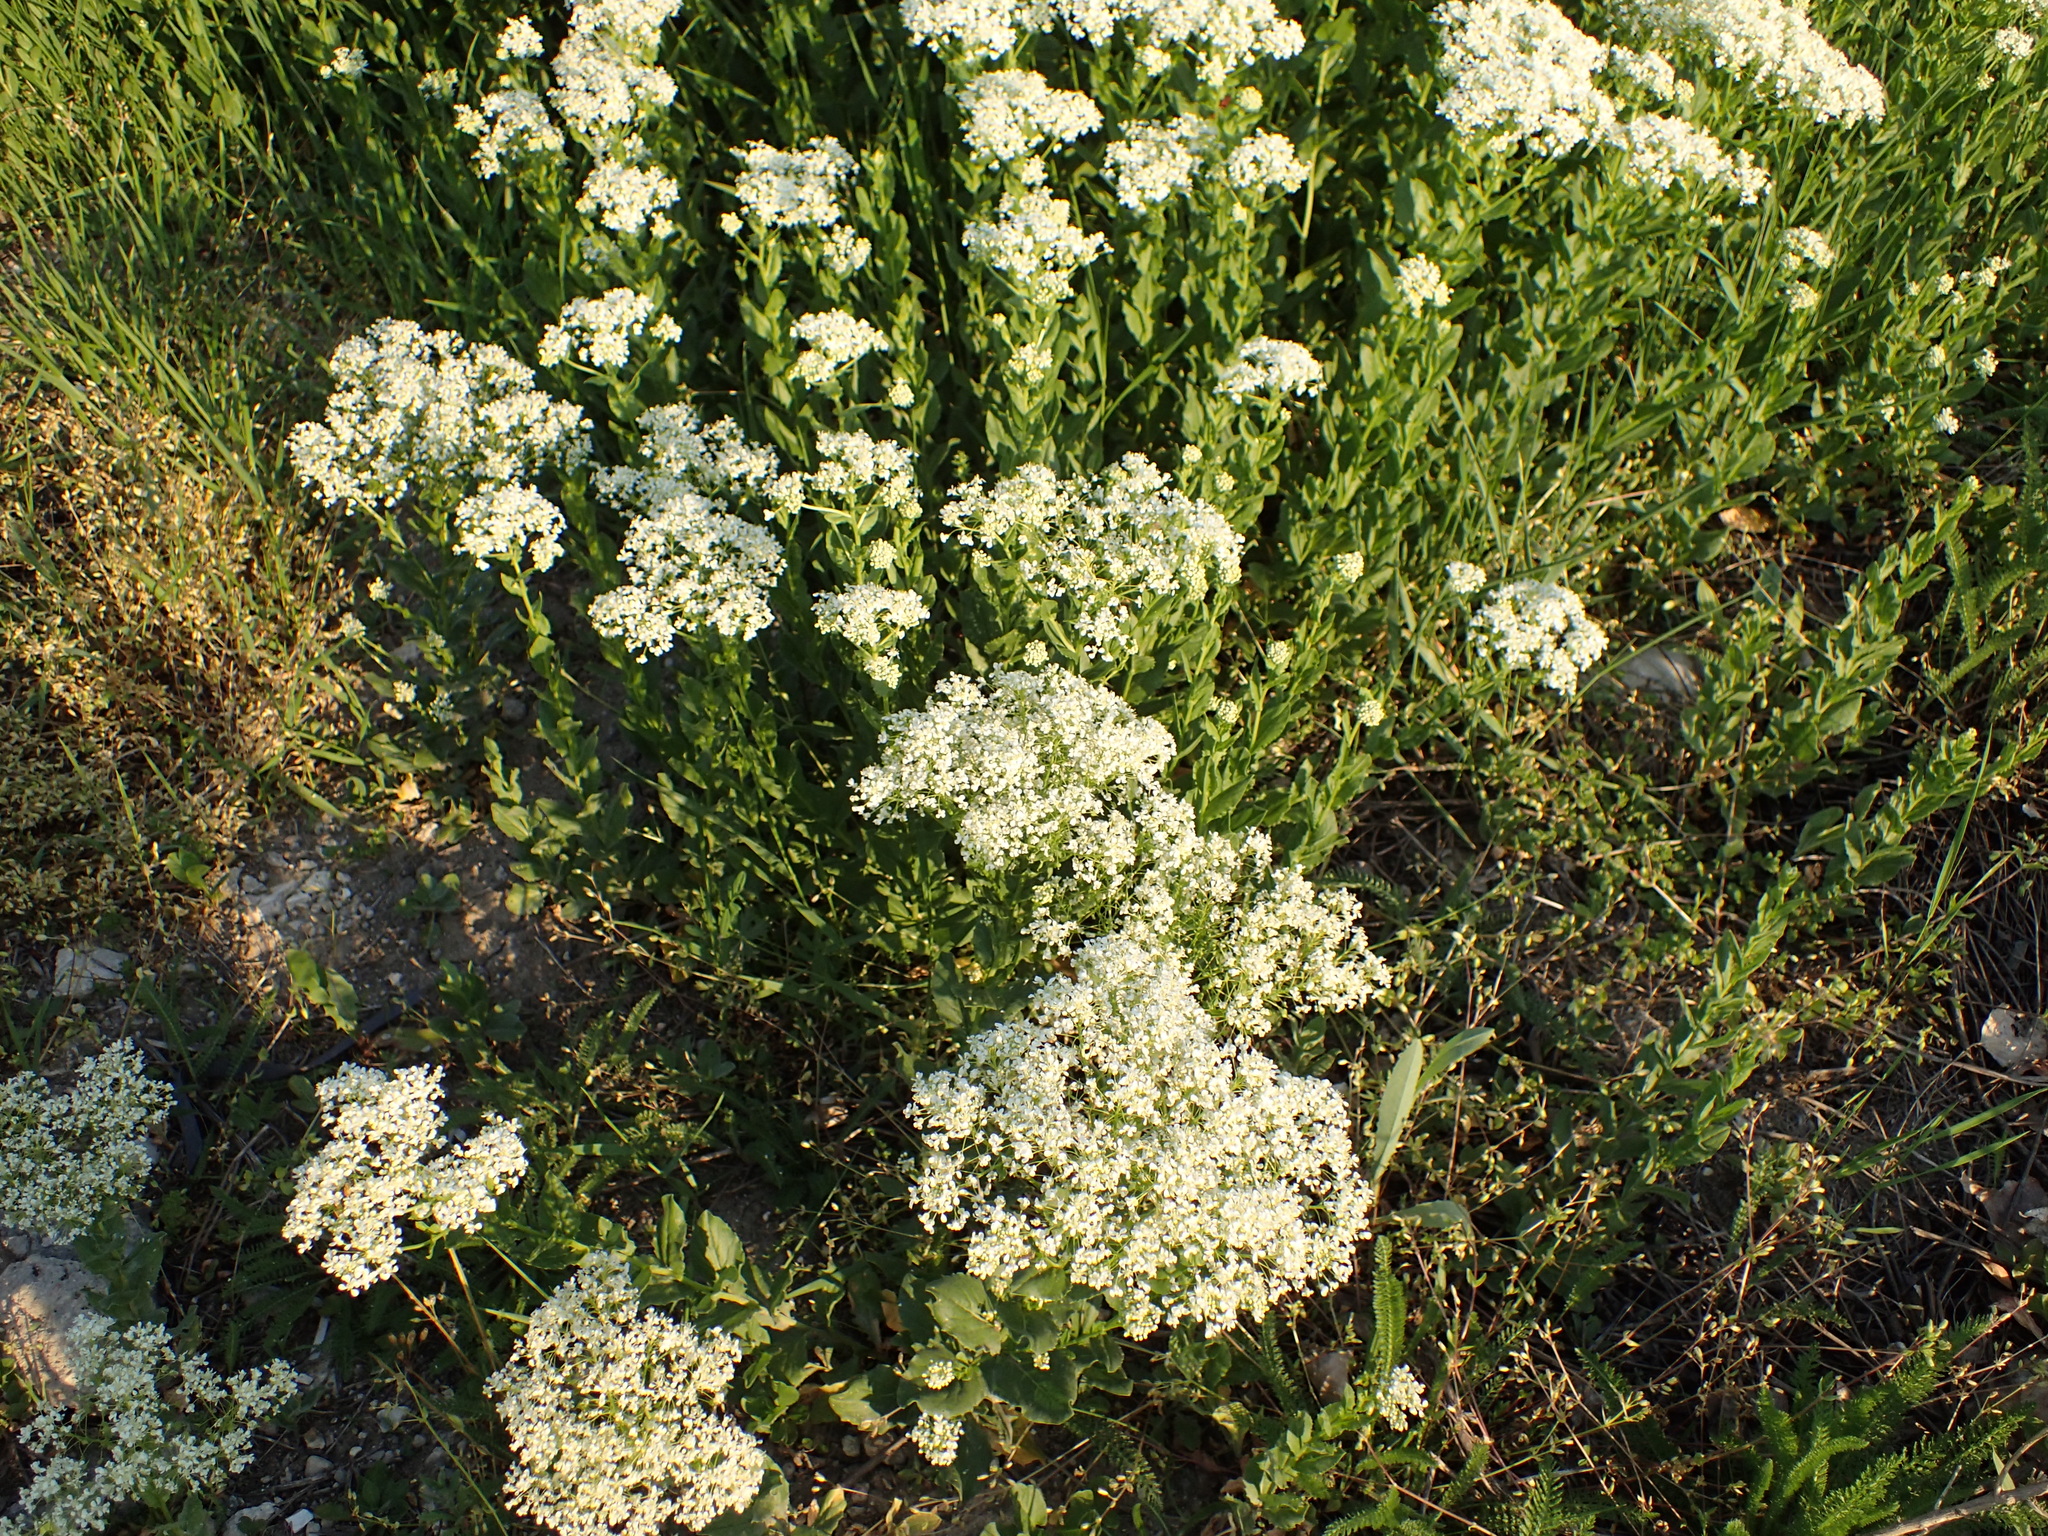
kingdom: Plantae
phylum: Tracheophyta
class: Magnoliopsida
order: Brassicales
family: Brassicaceae
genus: Lepidium
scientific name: Lepidium draba
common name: Hoary cress
